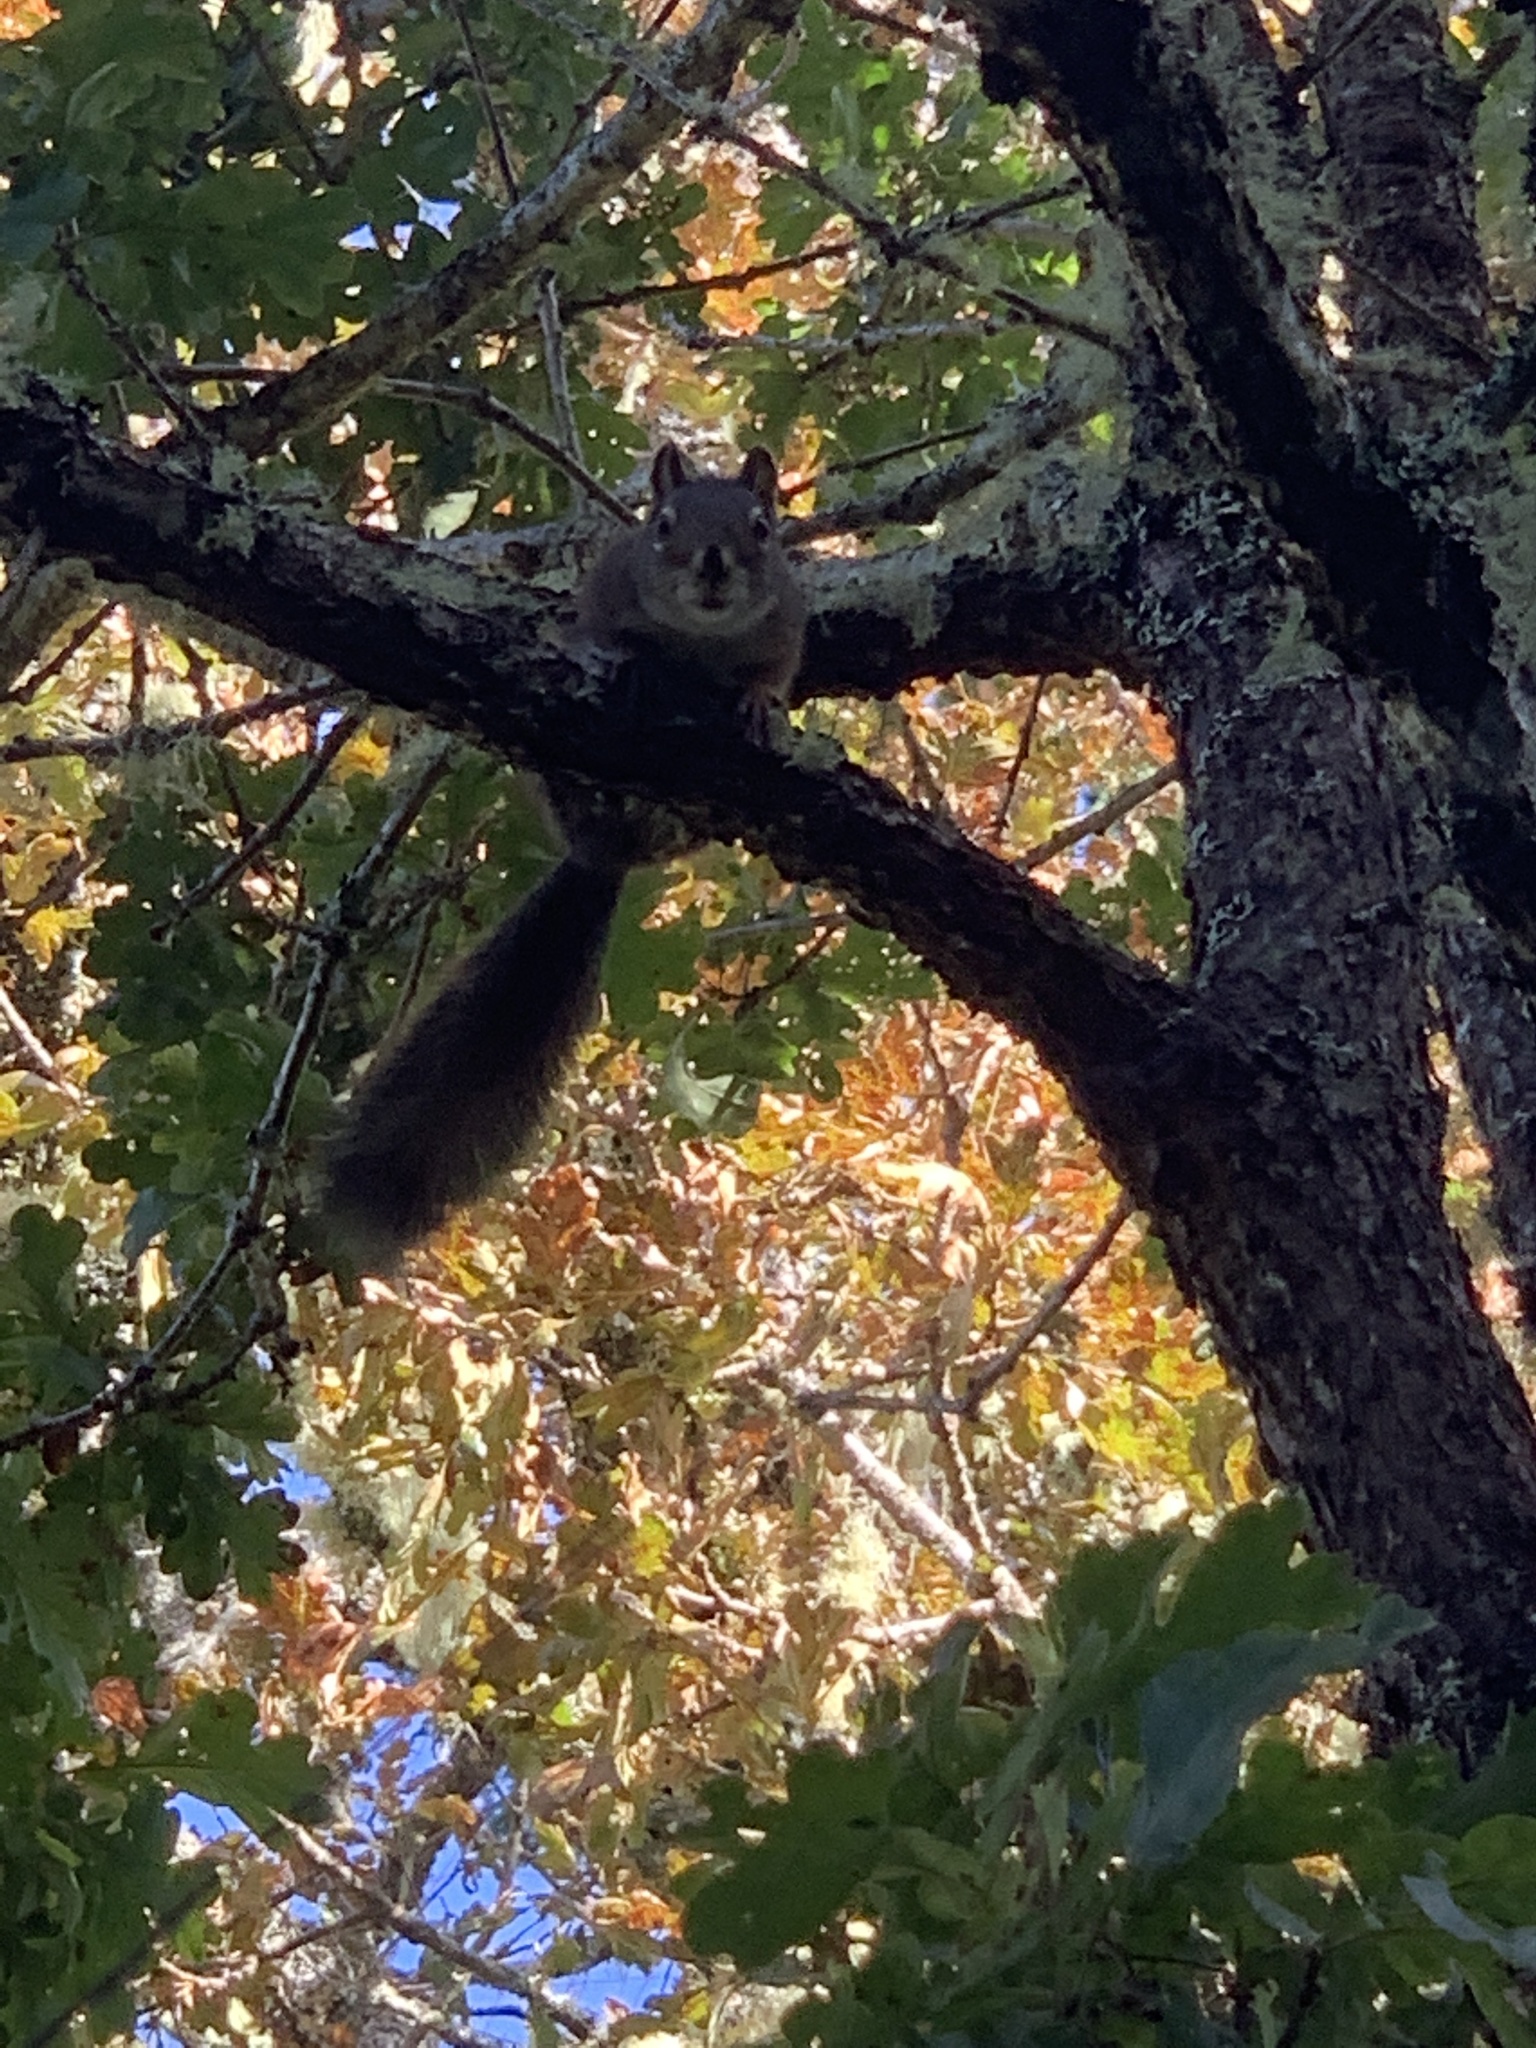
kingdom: Animalia
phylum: Chordata
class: Mammalia
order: Rodentia
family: Sciuridae
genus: Tamiasciurus
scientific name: Tamiasciurus hudsonicus
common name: Red squirrel
